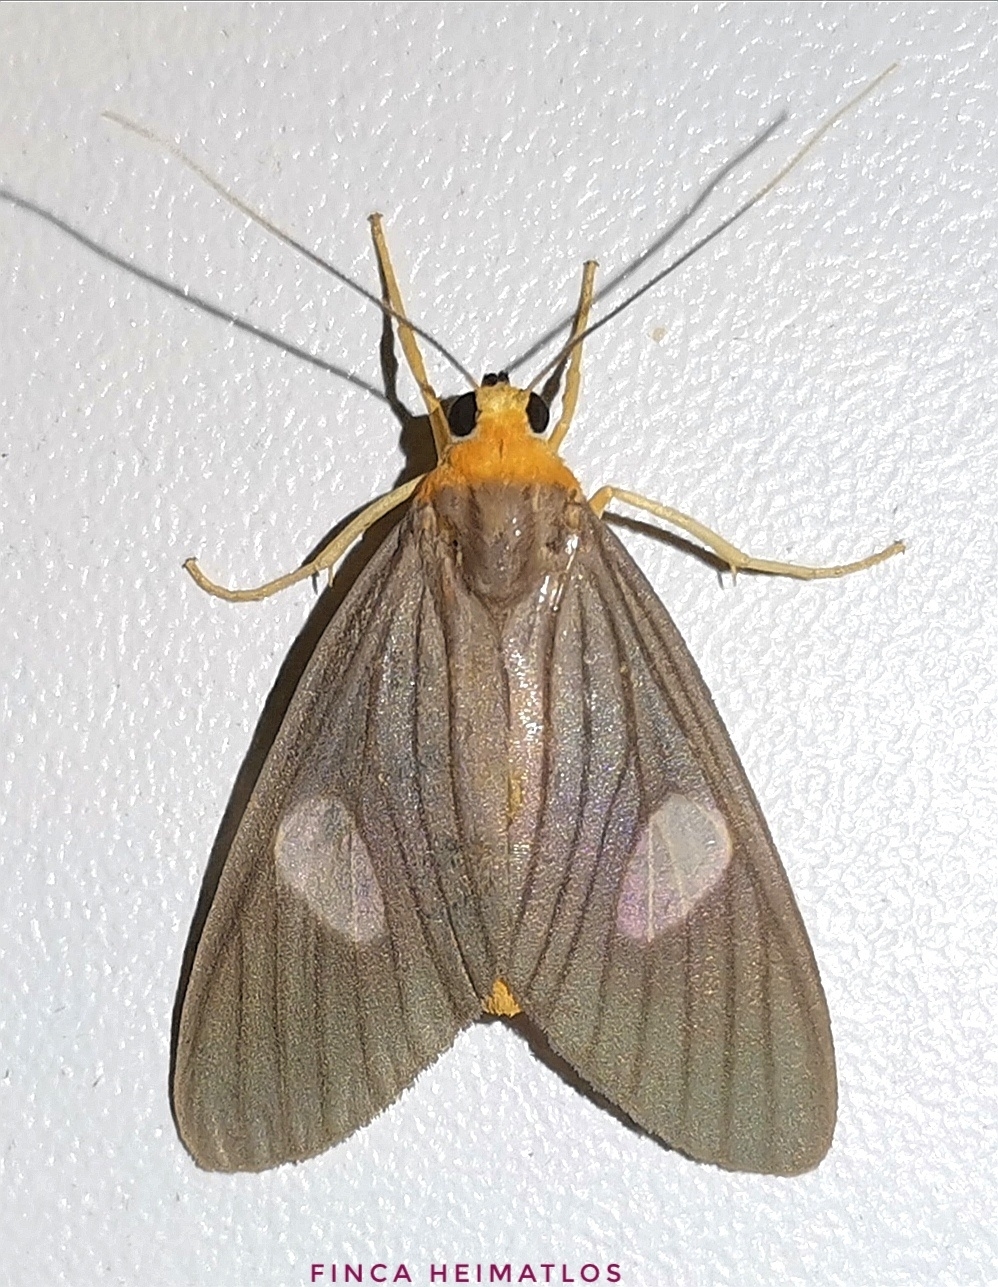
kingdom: Animalia
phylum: Arthropoda
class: Insecta
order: Lepidoptera
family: Erebidae
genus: Neritos
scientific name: Neritos sorex
